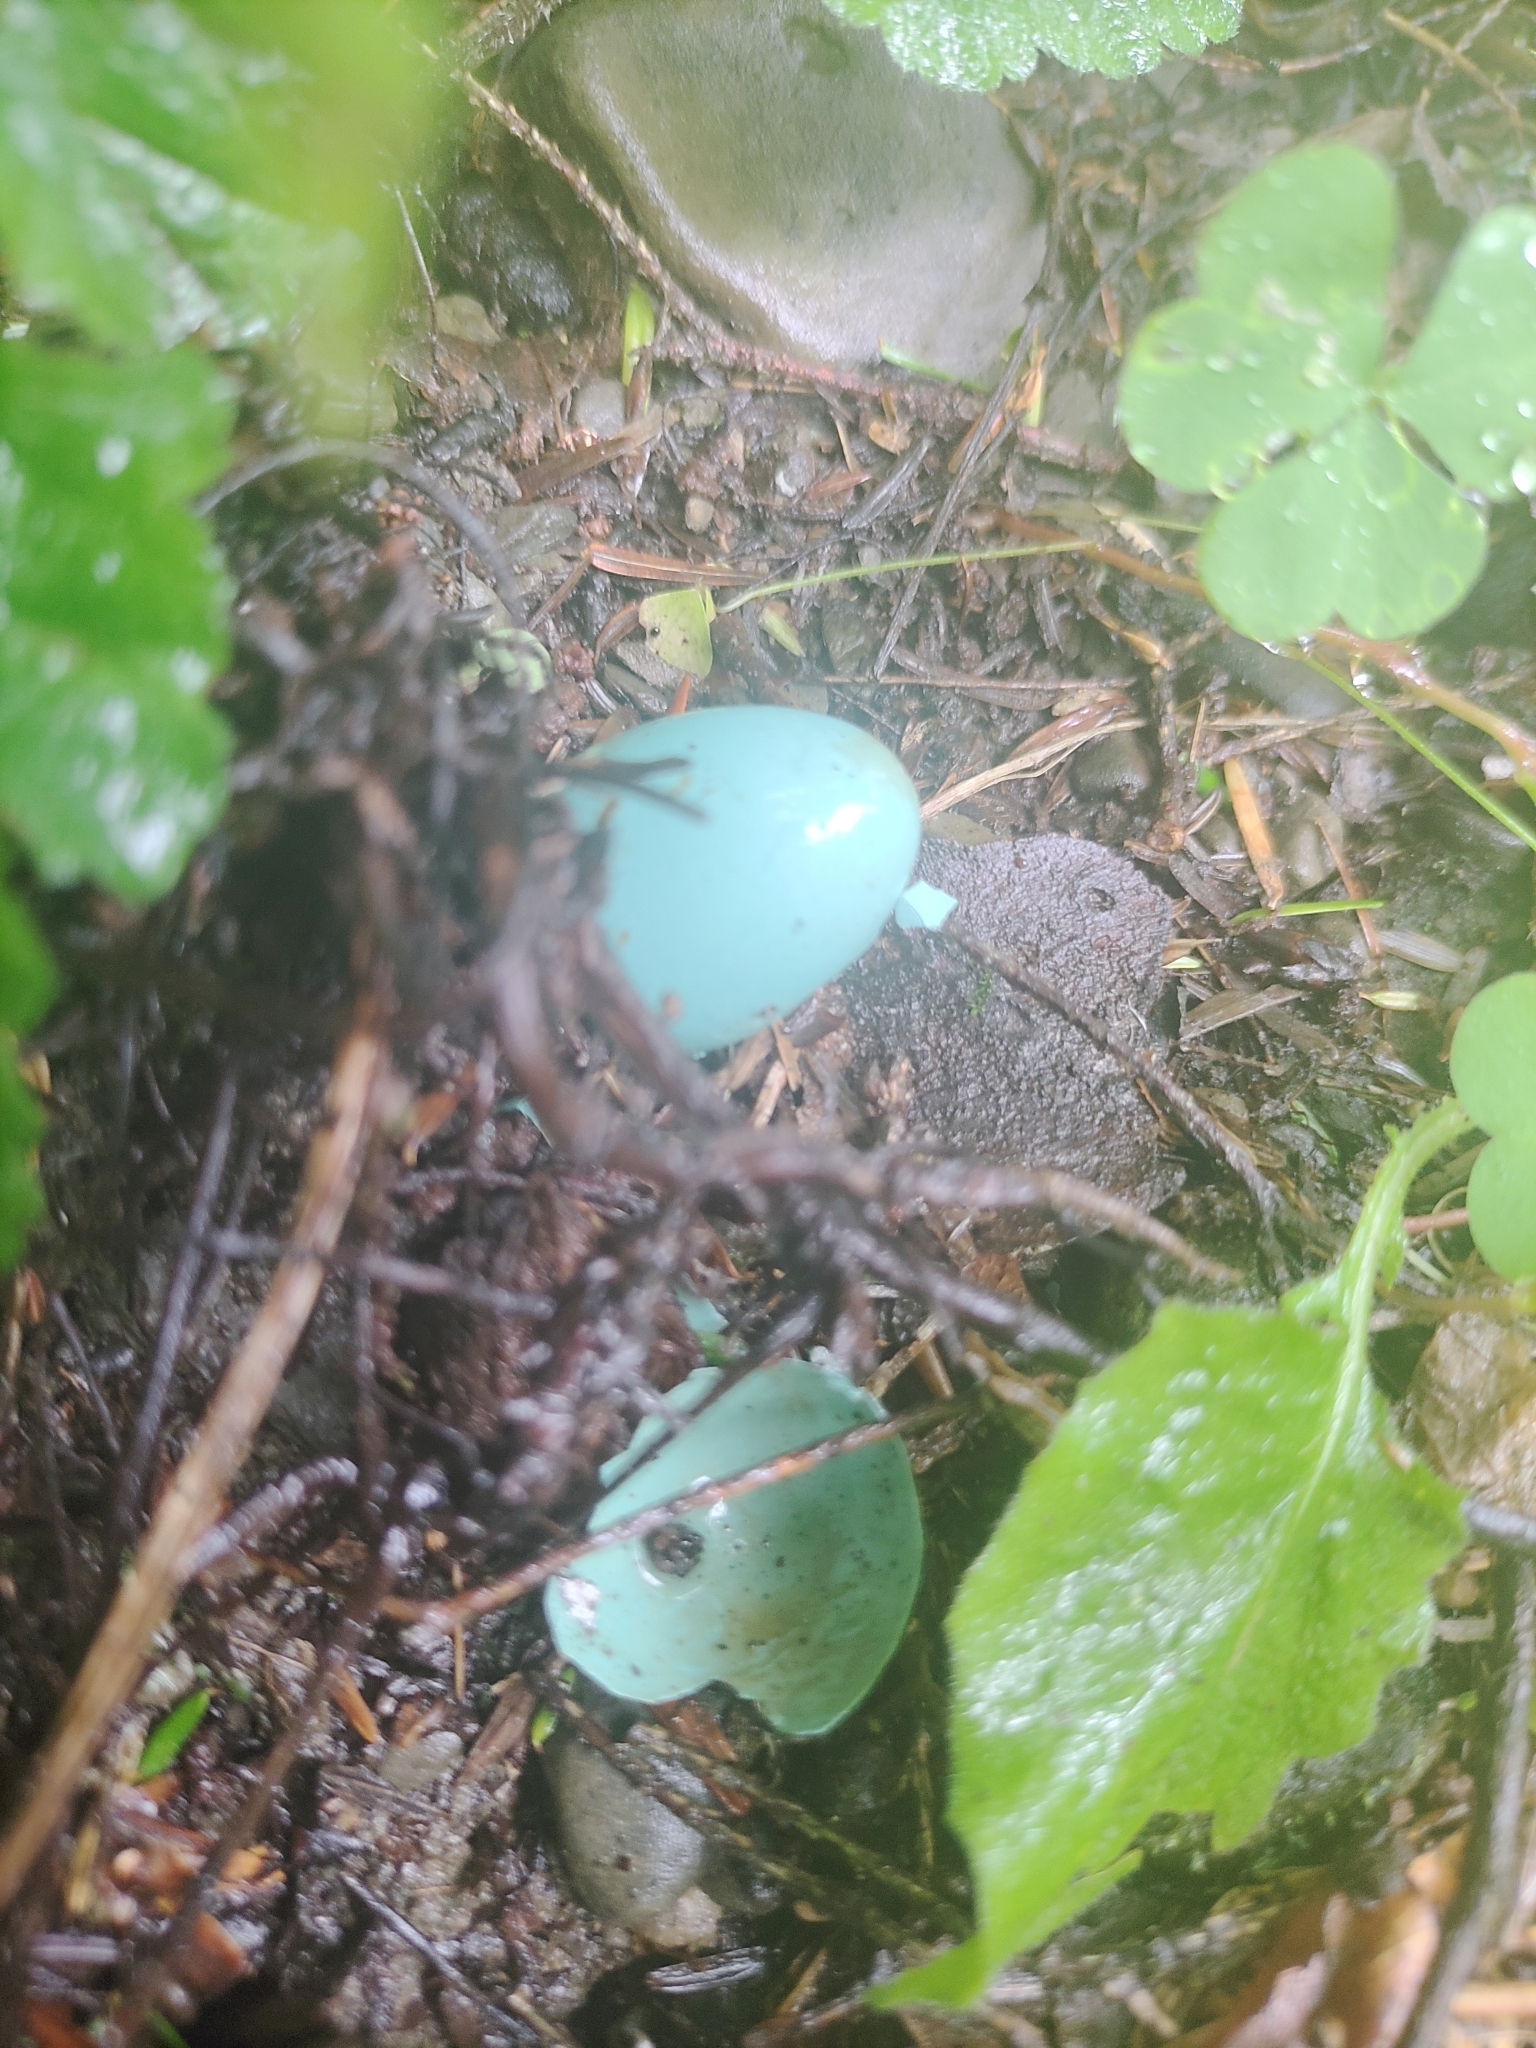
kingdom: Animalia
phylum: Chordata
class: Aves
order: Passeriformes
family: Turdidae
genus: Turdus
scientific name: Turdus migratorius
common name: American robin
